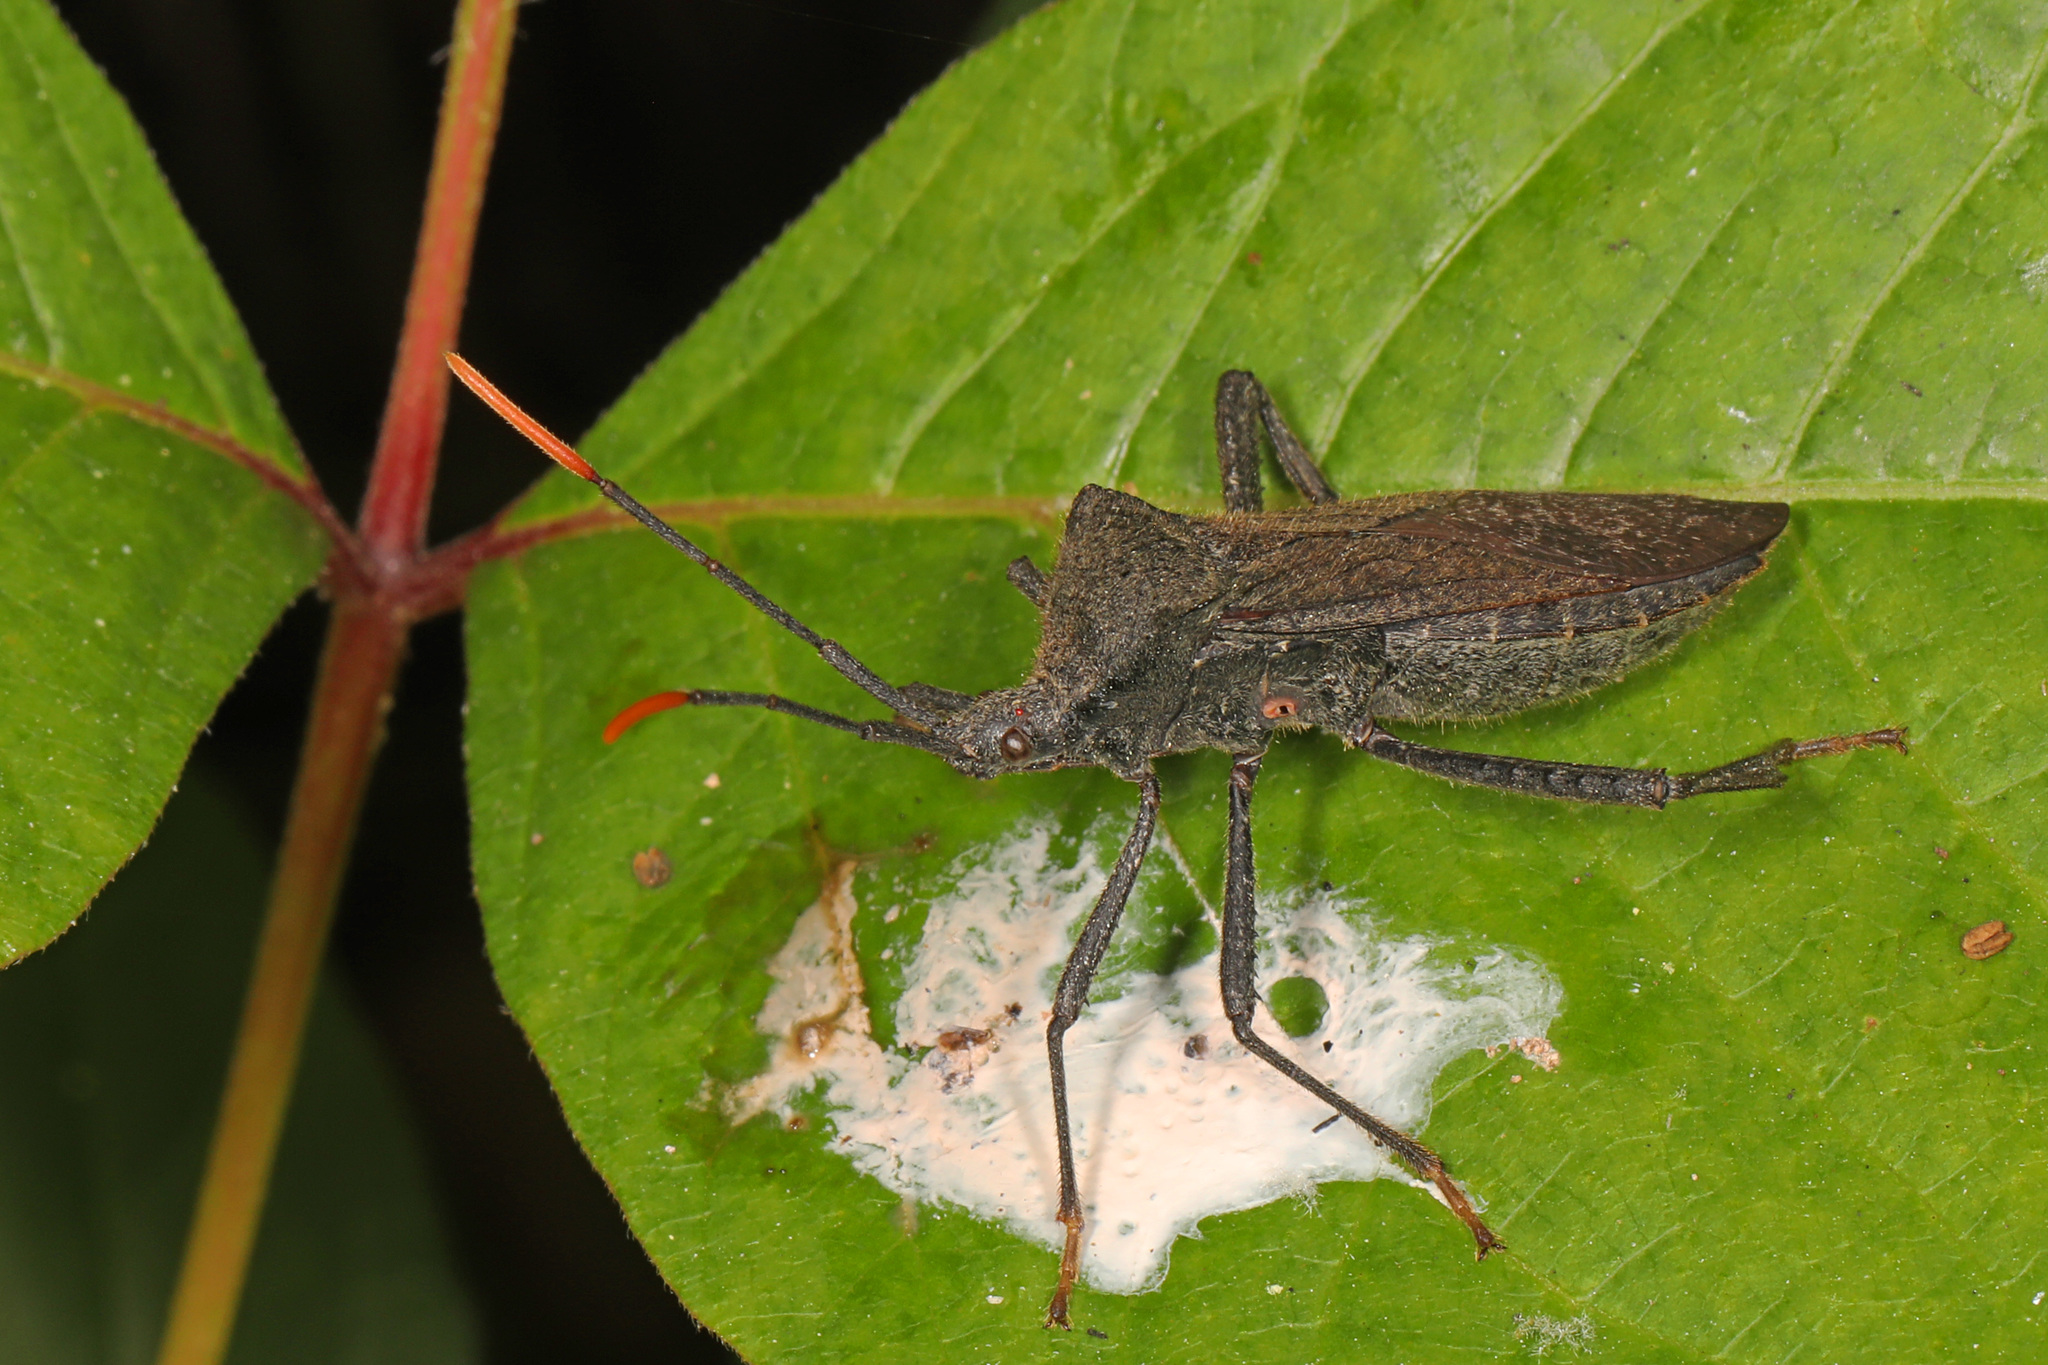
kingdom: Animalia
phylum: Arthropoda
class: Insecta
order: Hemiptera
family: Coreidae
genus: Acanthocephala
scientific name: Acanthocephala terminalis
